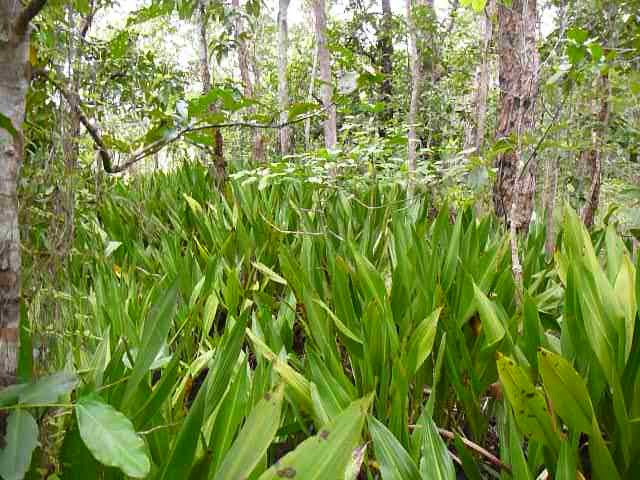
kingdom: Plantae
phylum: Tracheophyta
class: Liliopsida
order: Commelinales
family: Hanguanaceae
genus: Hanguana
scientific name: Hanguana anthelminthica
